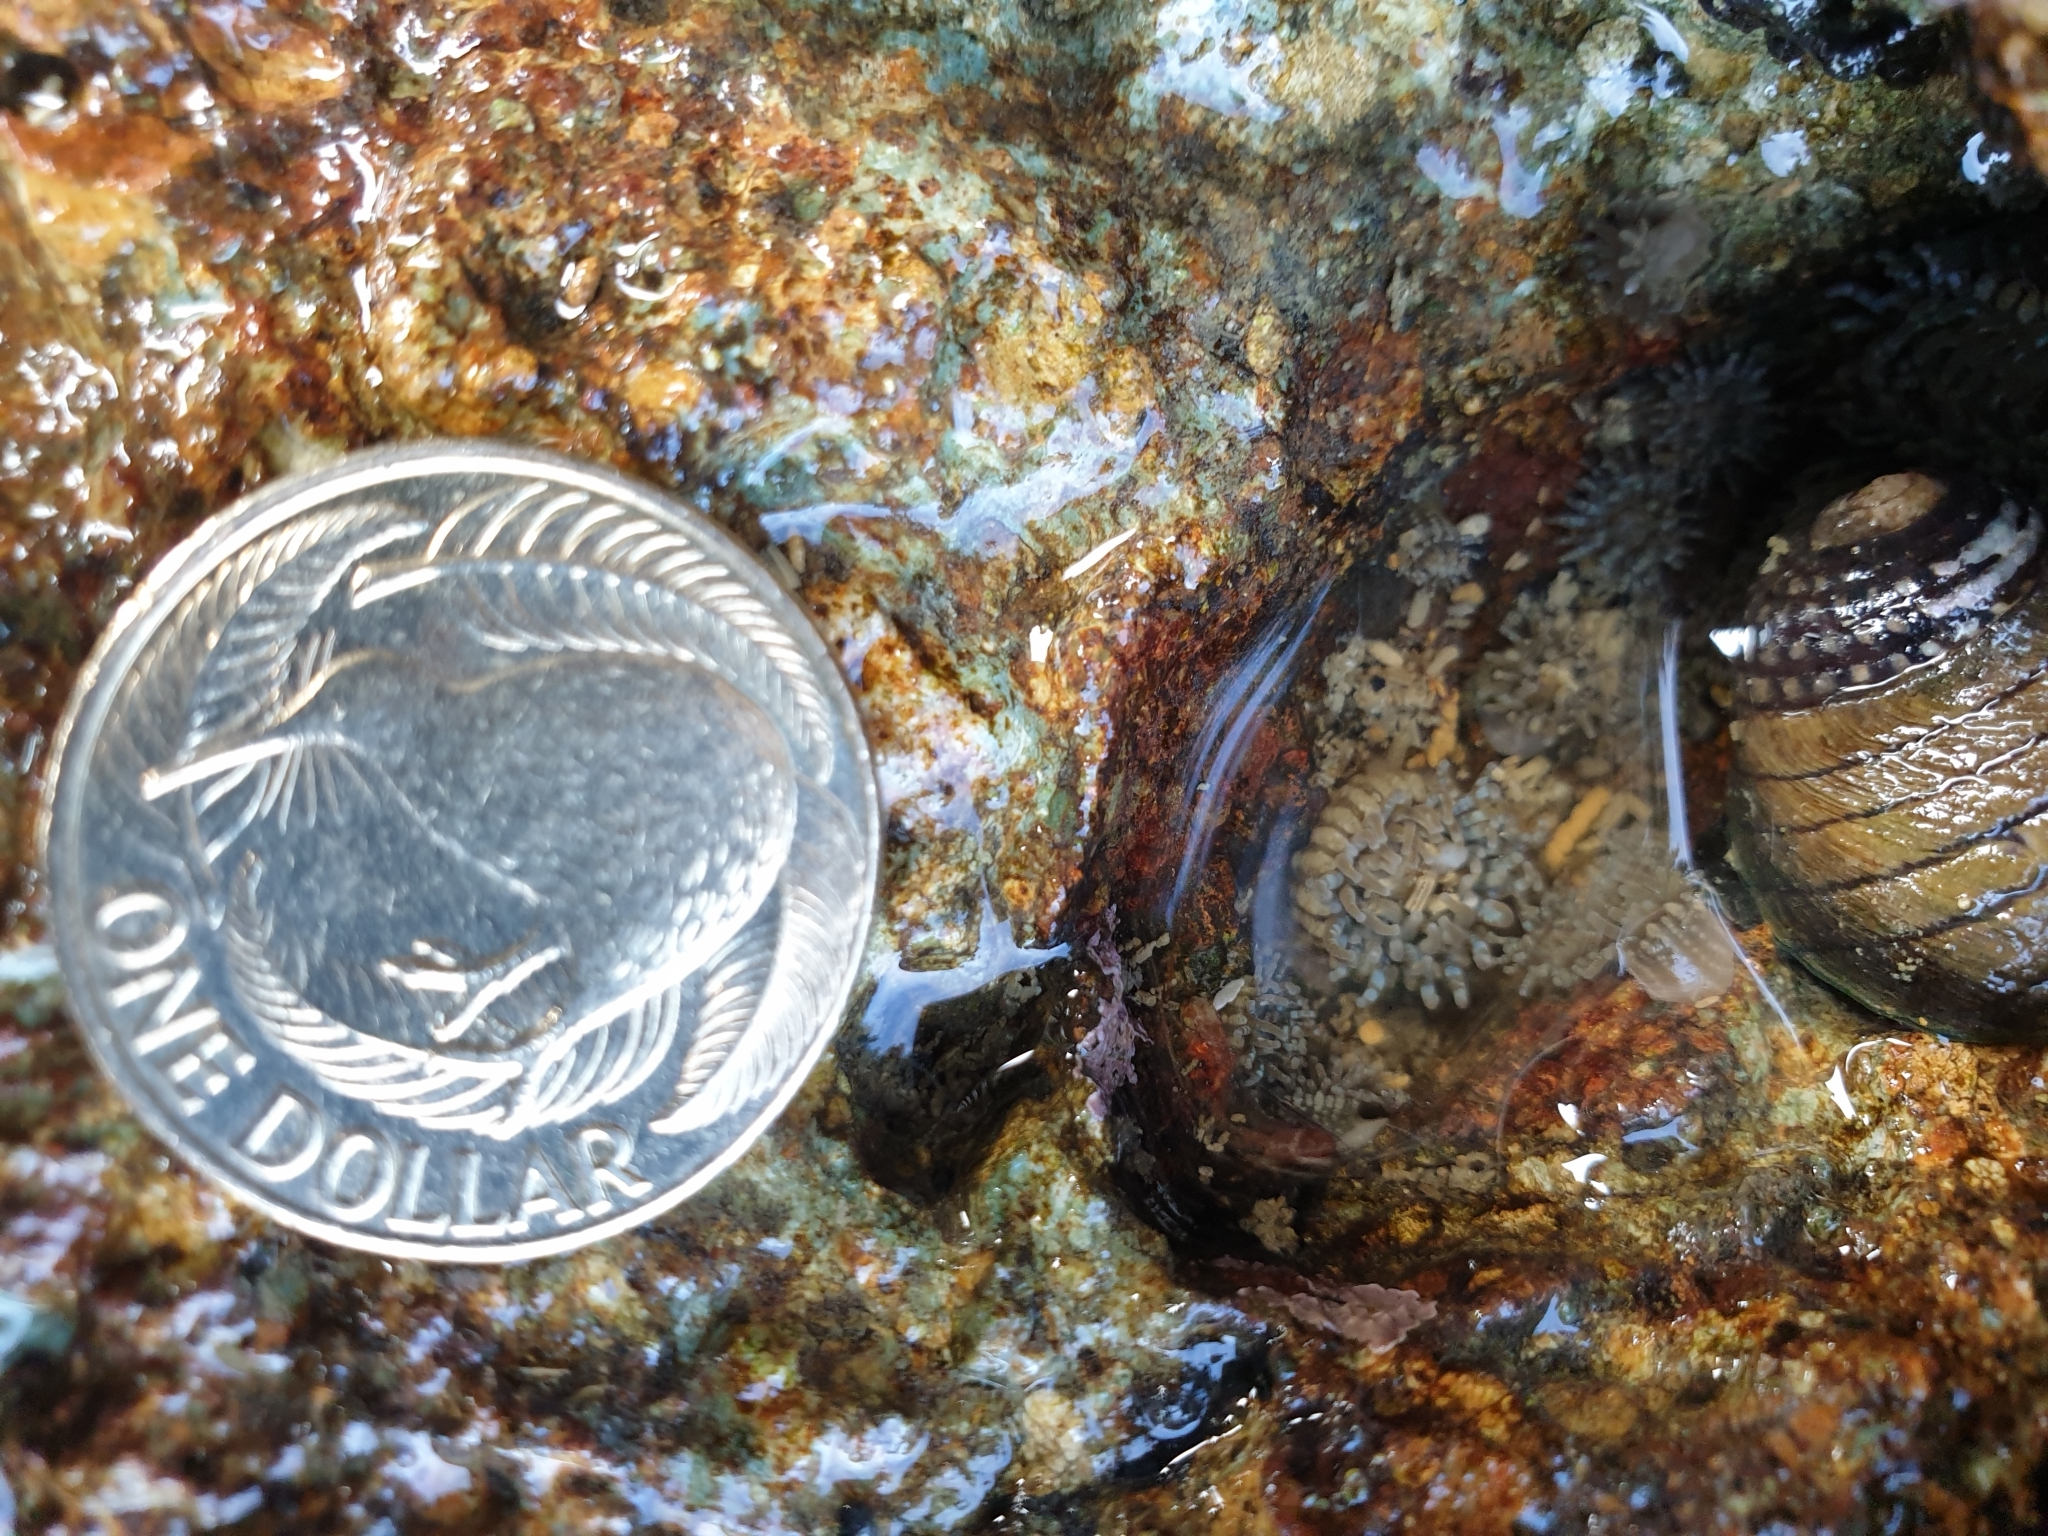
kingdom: Animalia
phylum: Cnidaria
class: Anthozoa
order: Actiniaria
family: Actiniidae
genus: Anthopleura
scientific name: Anthopleura hermaphroditica
